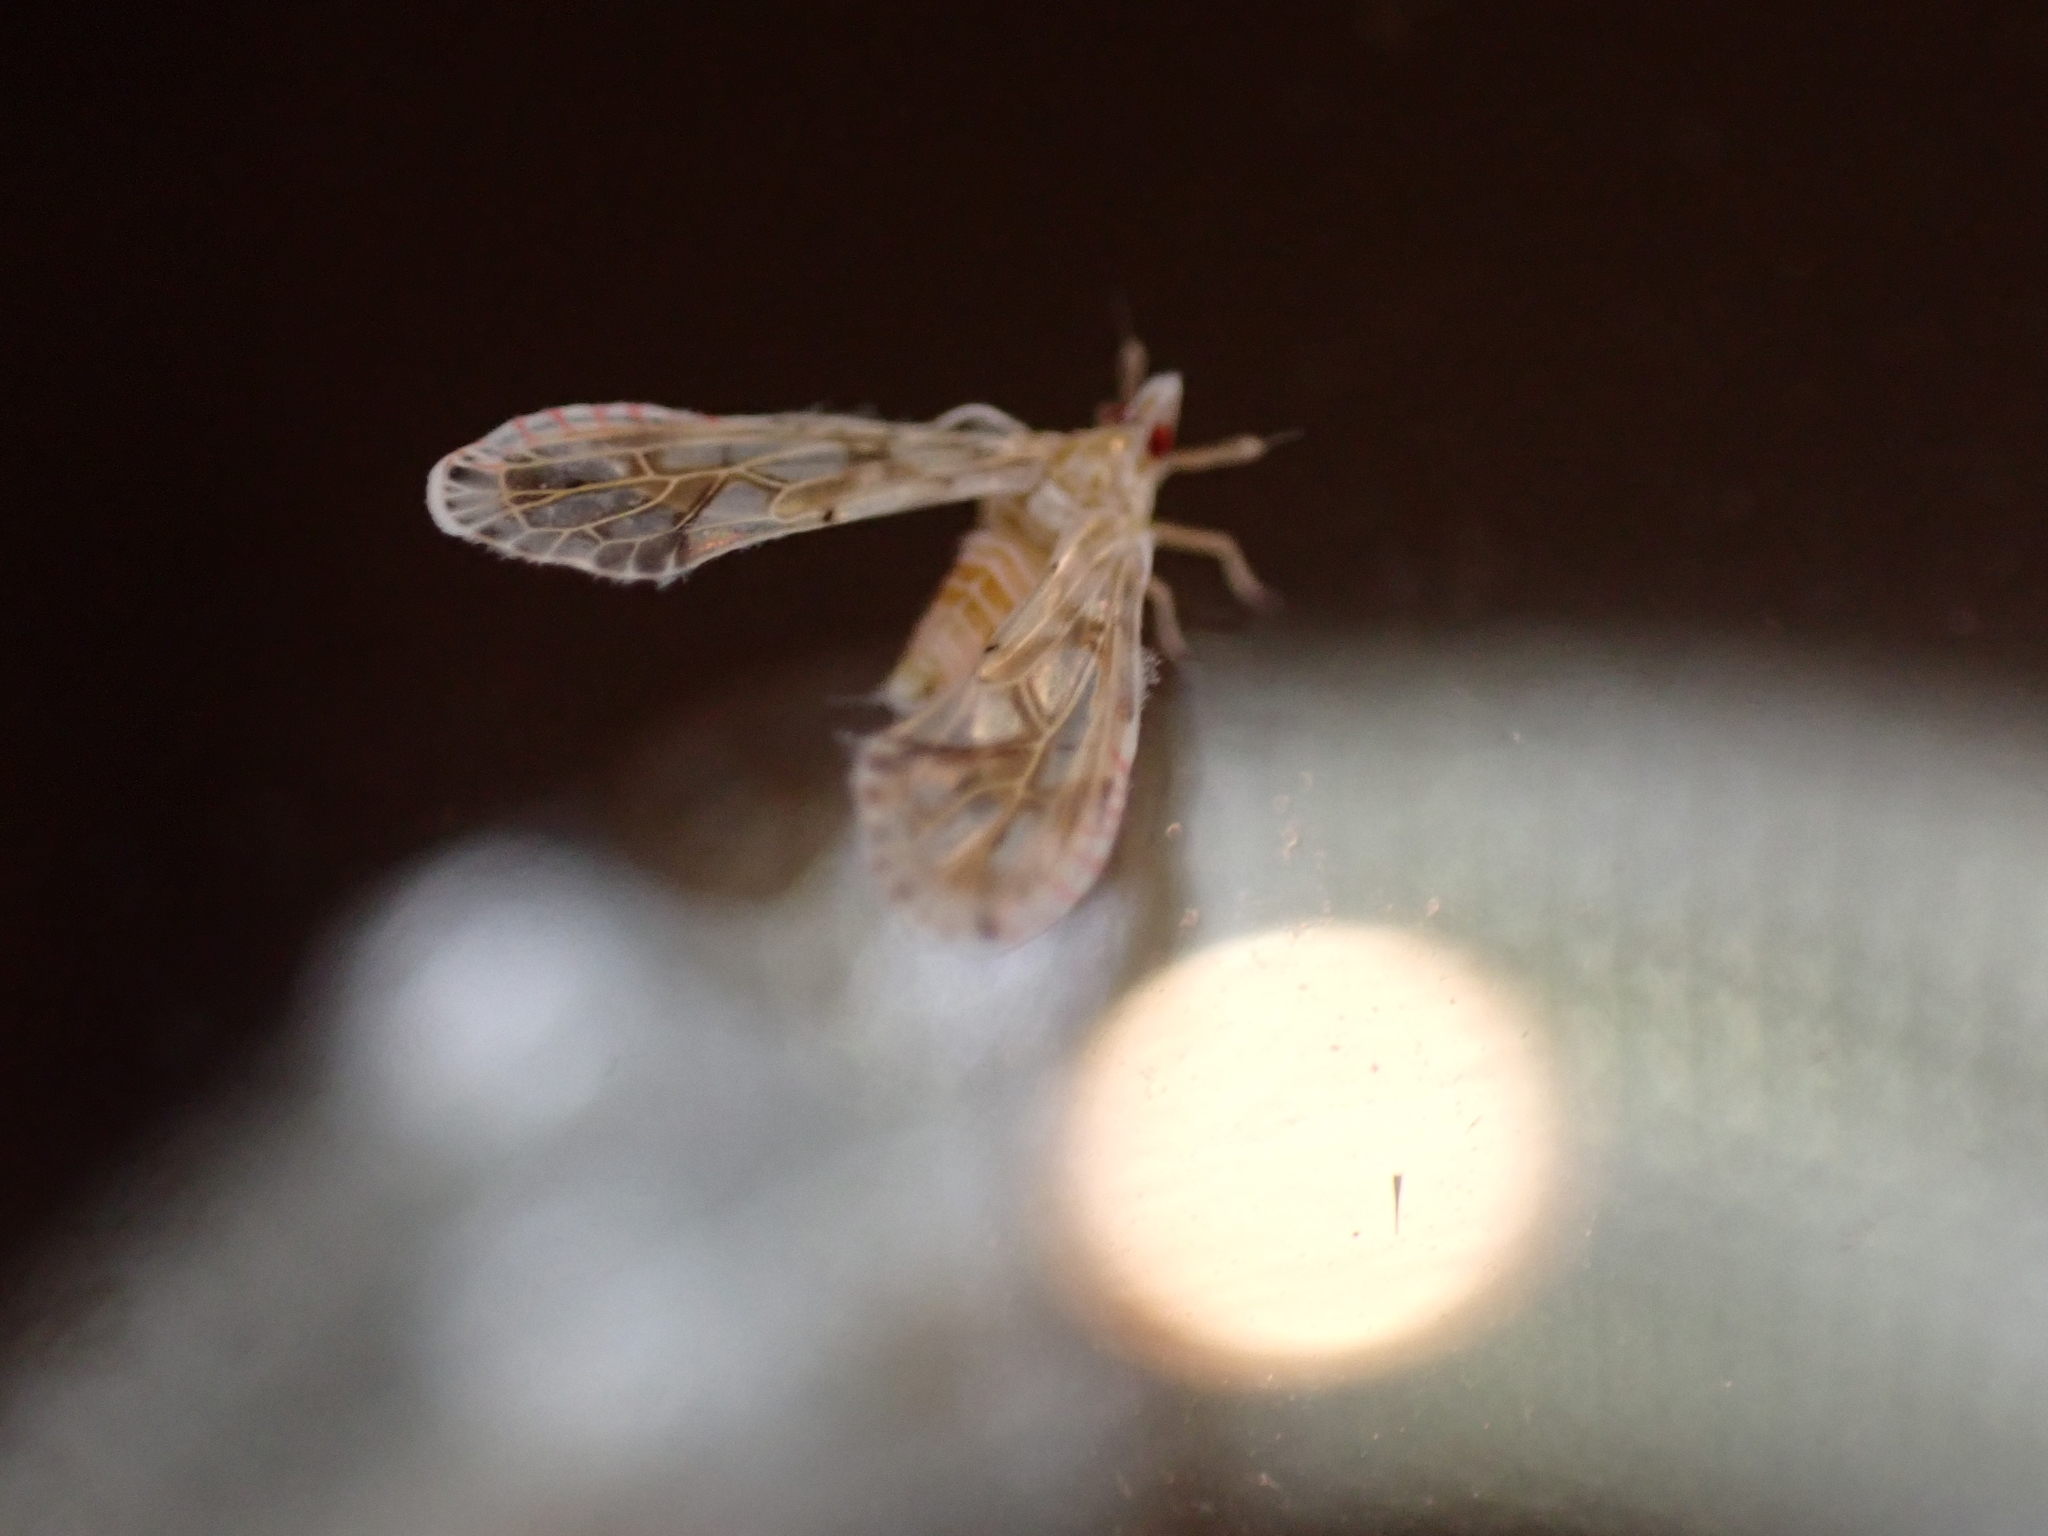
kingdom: Animalia
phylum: Arthropoda
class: Insecta
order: Hemiptera
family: Derbidae
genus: Anotia
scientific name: Anotia kirkaldyi
